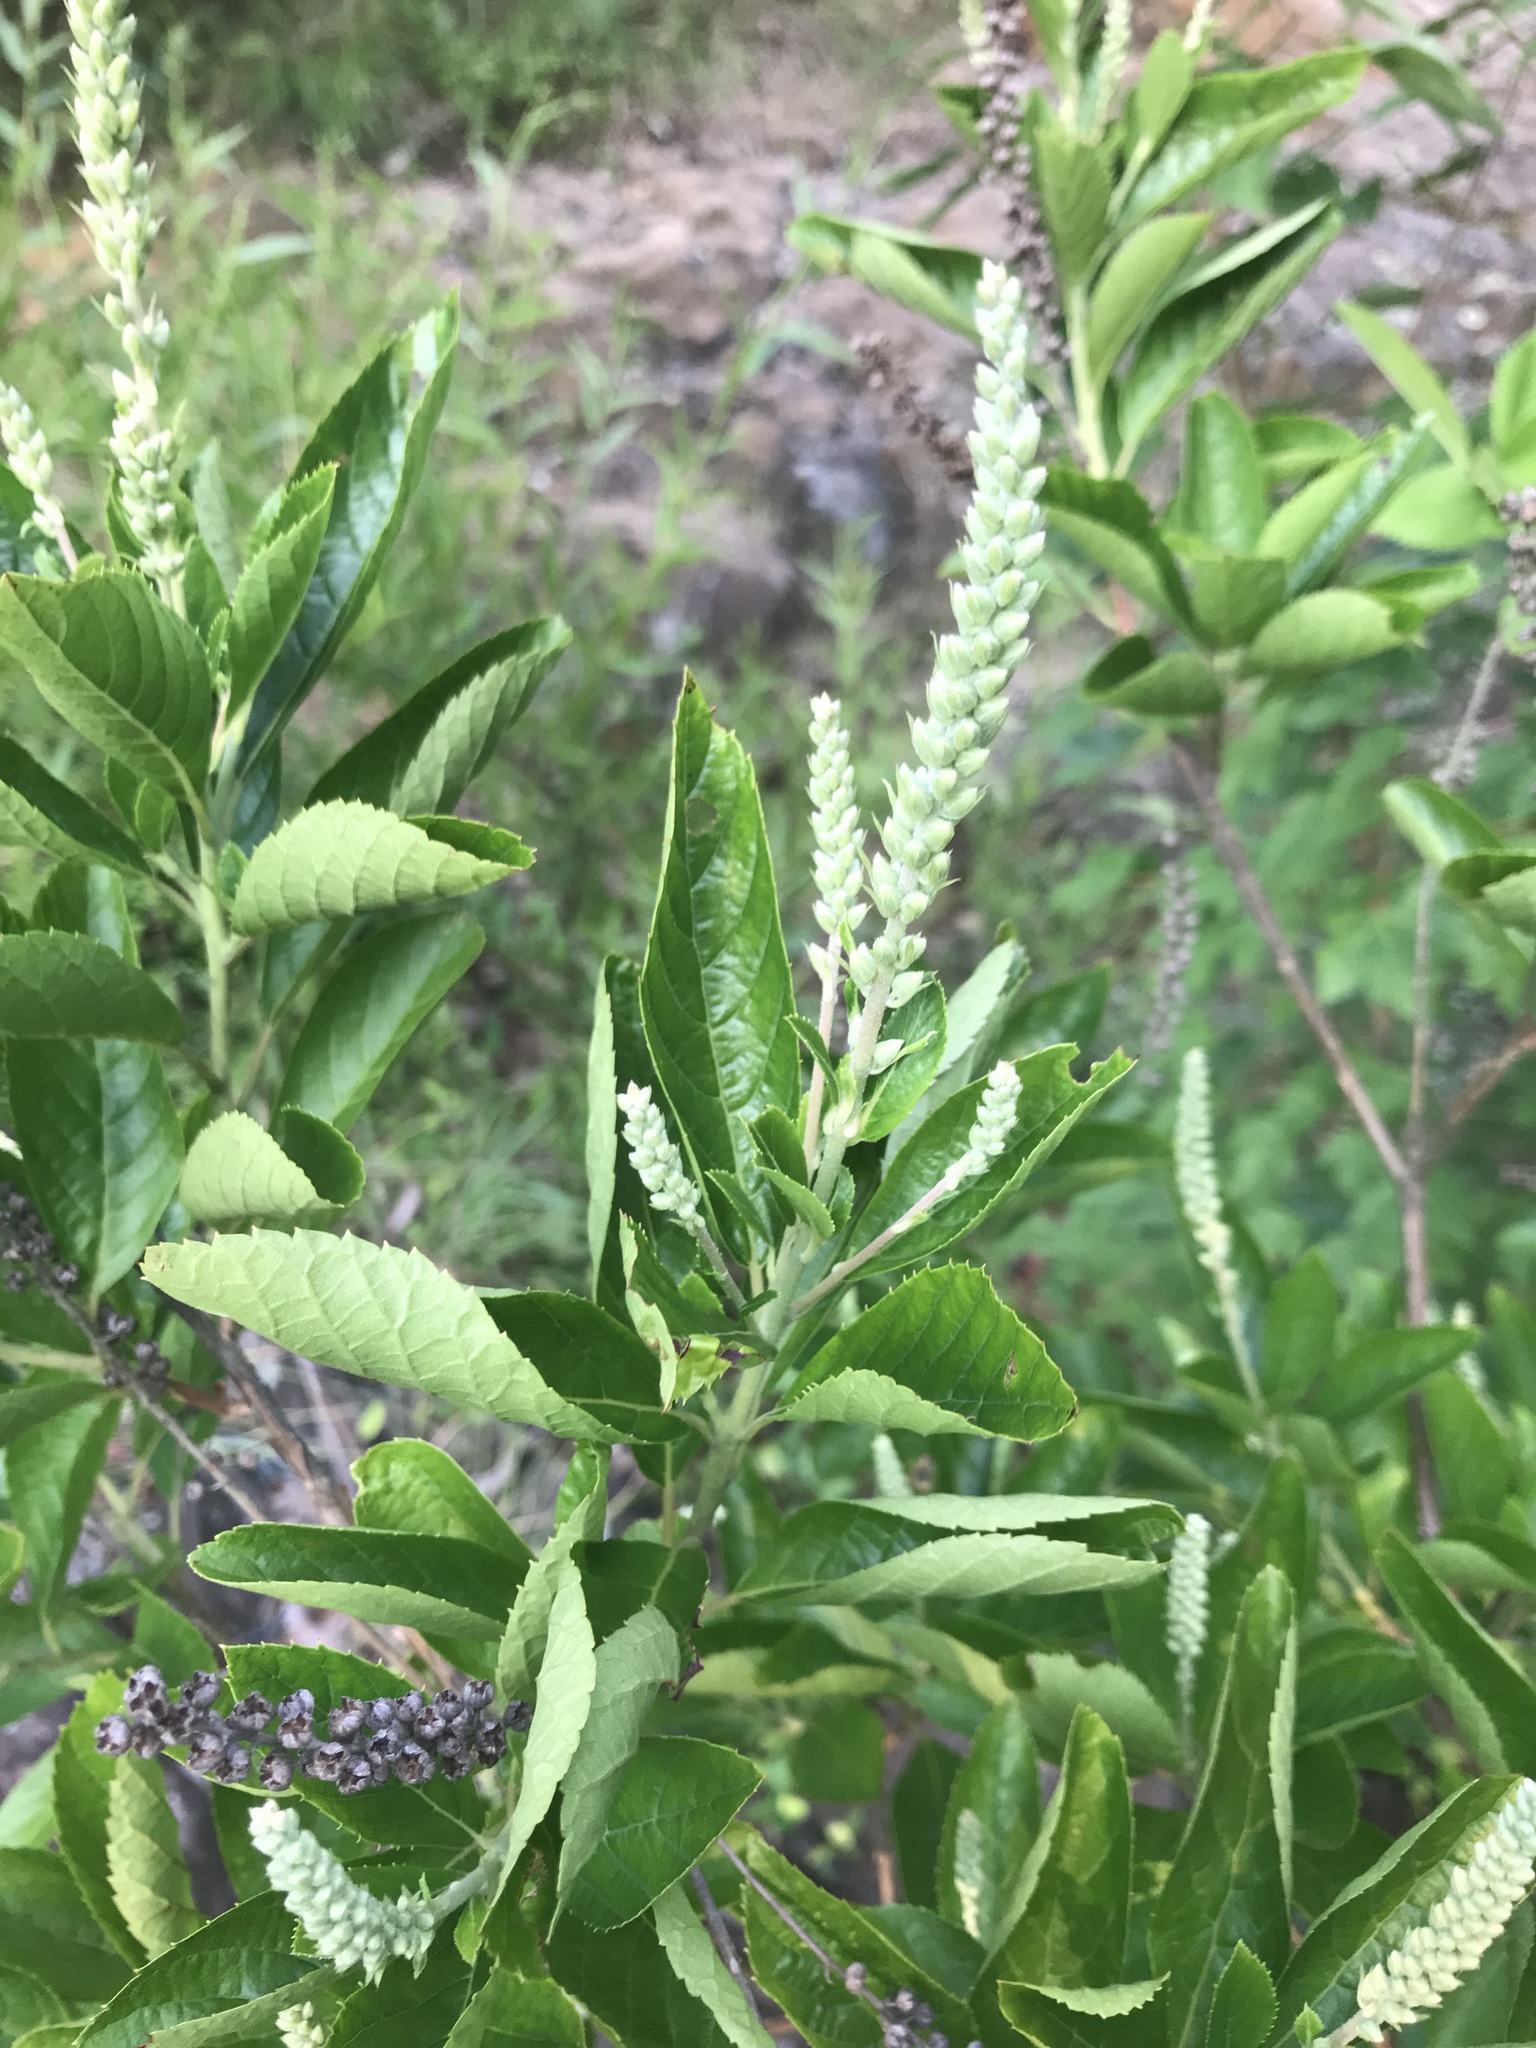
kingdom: Plantae
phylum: Tracheophyta
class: Magnoliopsida
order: Ericales
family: Clethraceae
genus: Clethra
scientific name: Clethra alnifolia
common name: Sweet pepperbush
